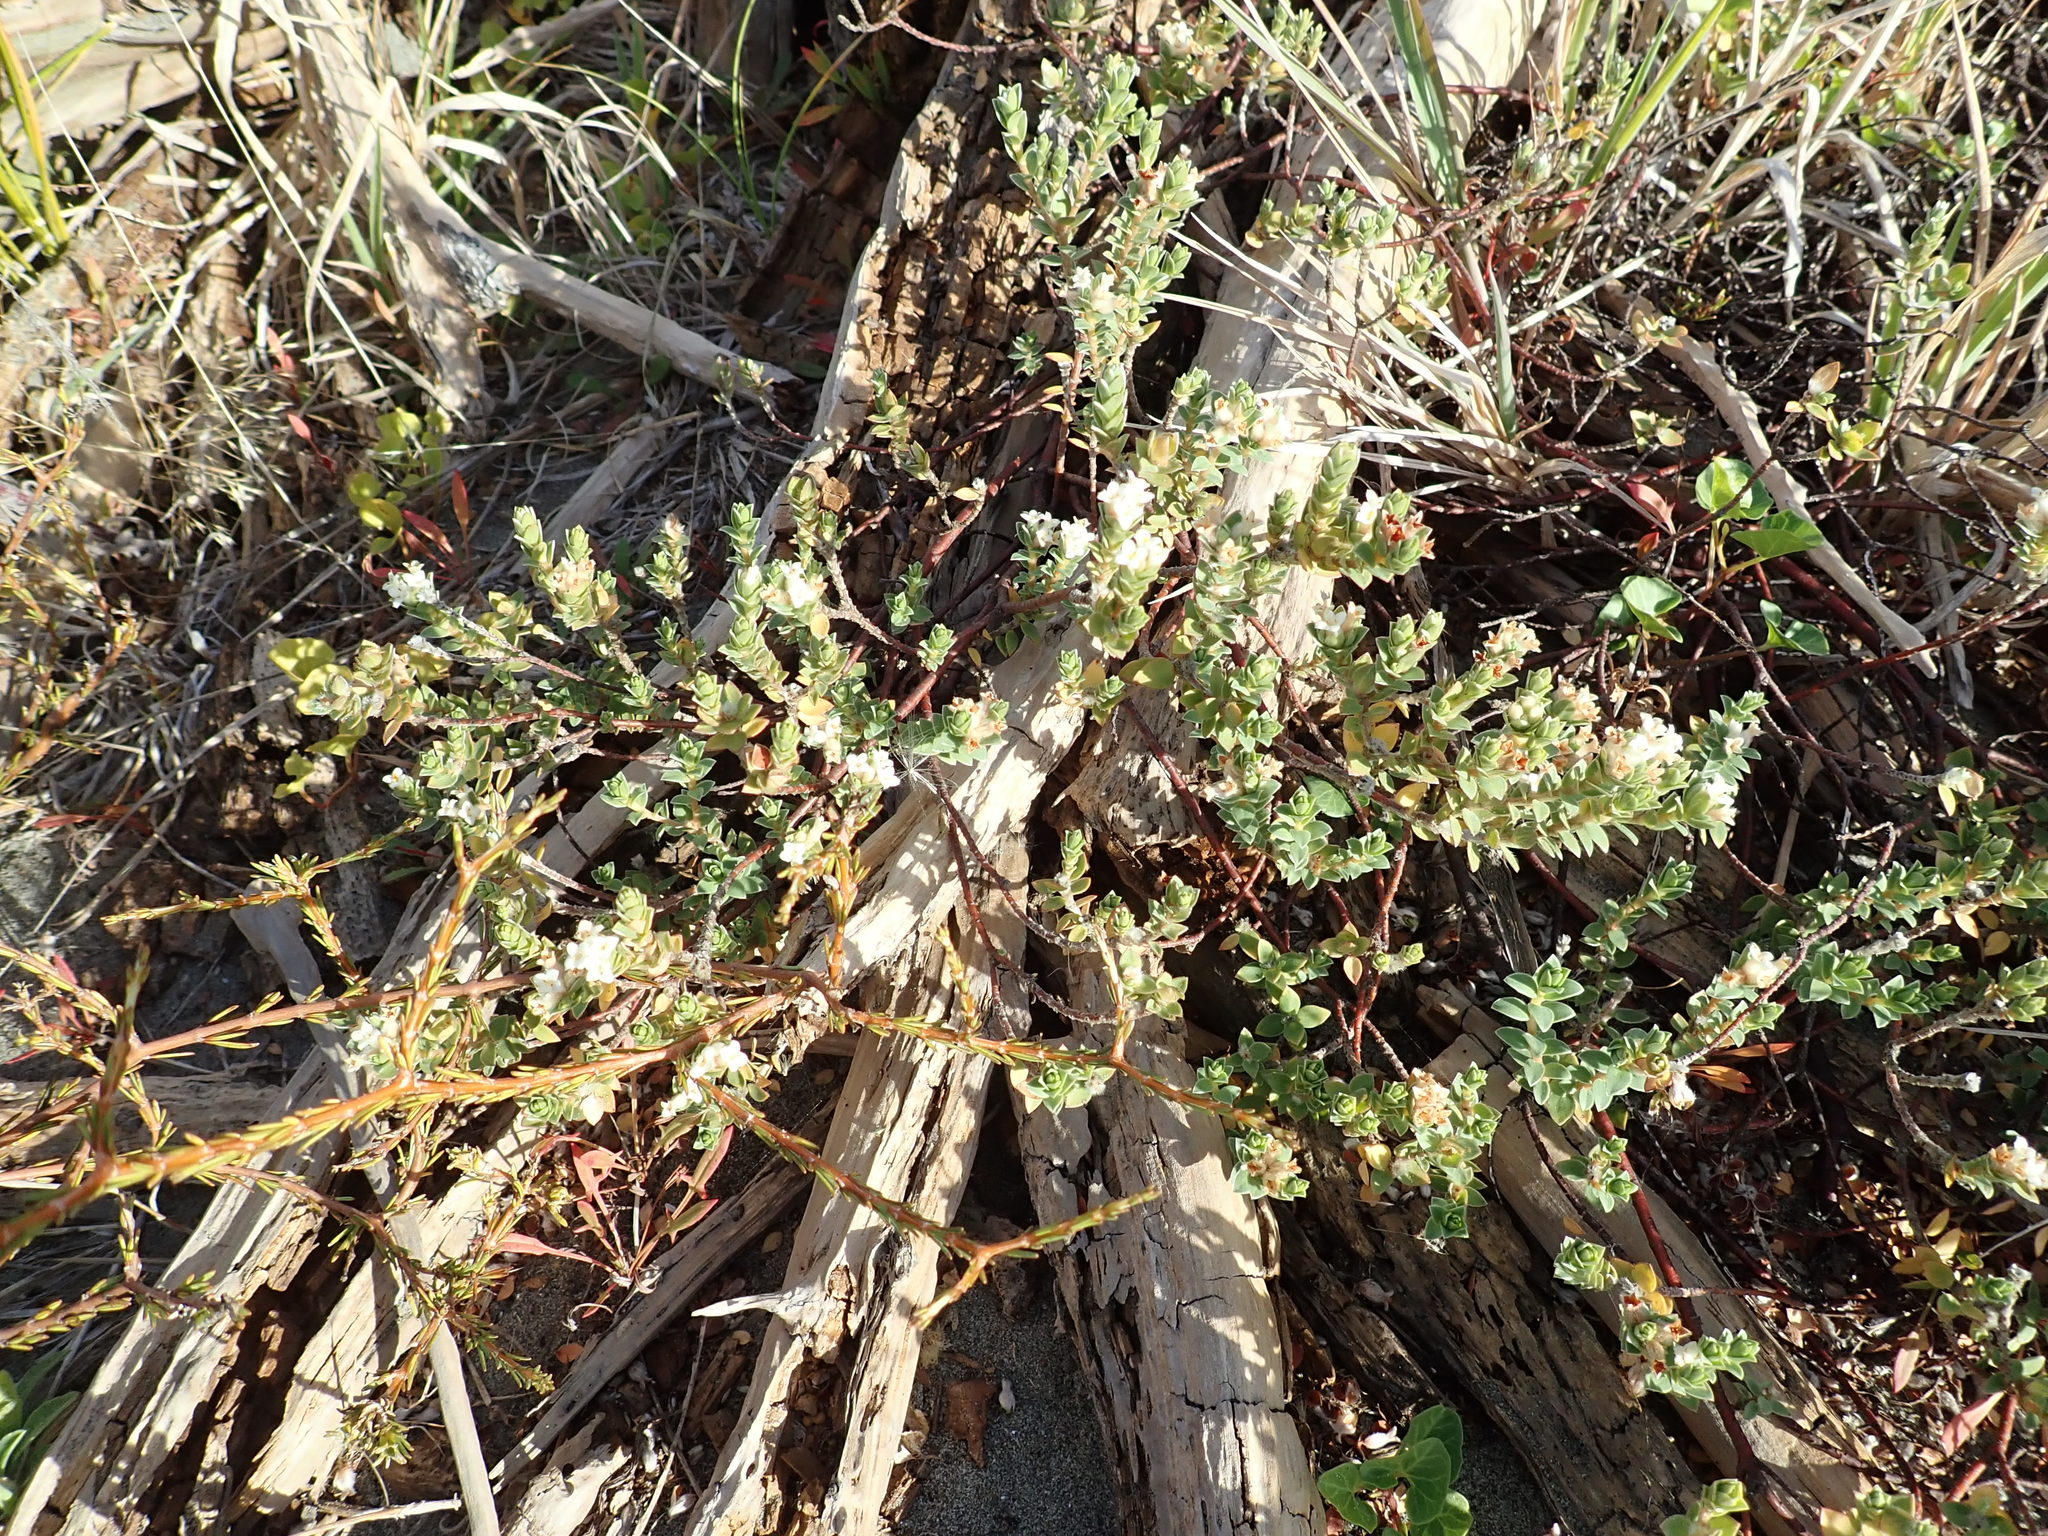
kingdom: Plantae
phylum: Tracheophyta
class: Magnoliopsida
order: Malvales
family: Thymelaeaceae
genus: Pimelea
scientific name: Pimelea villosa
